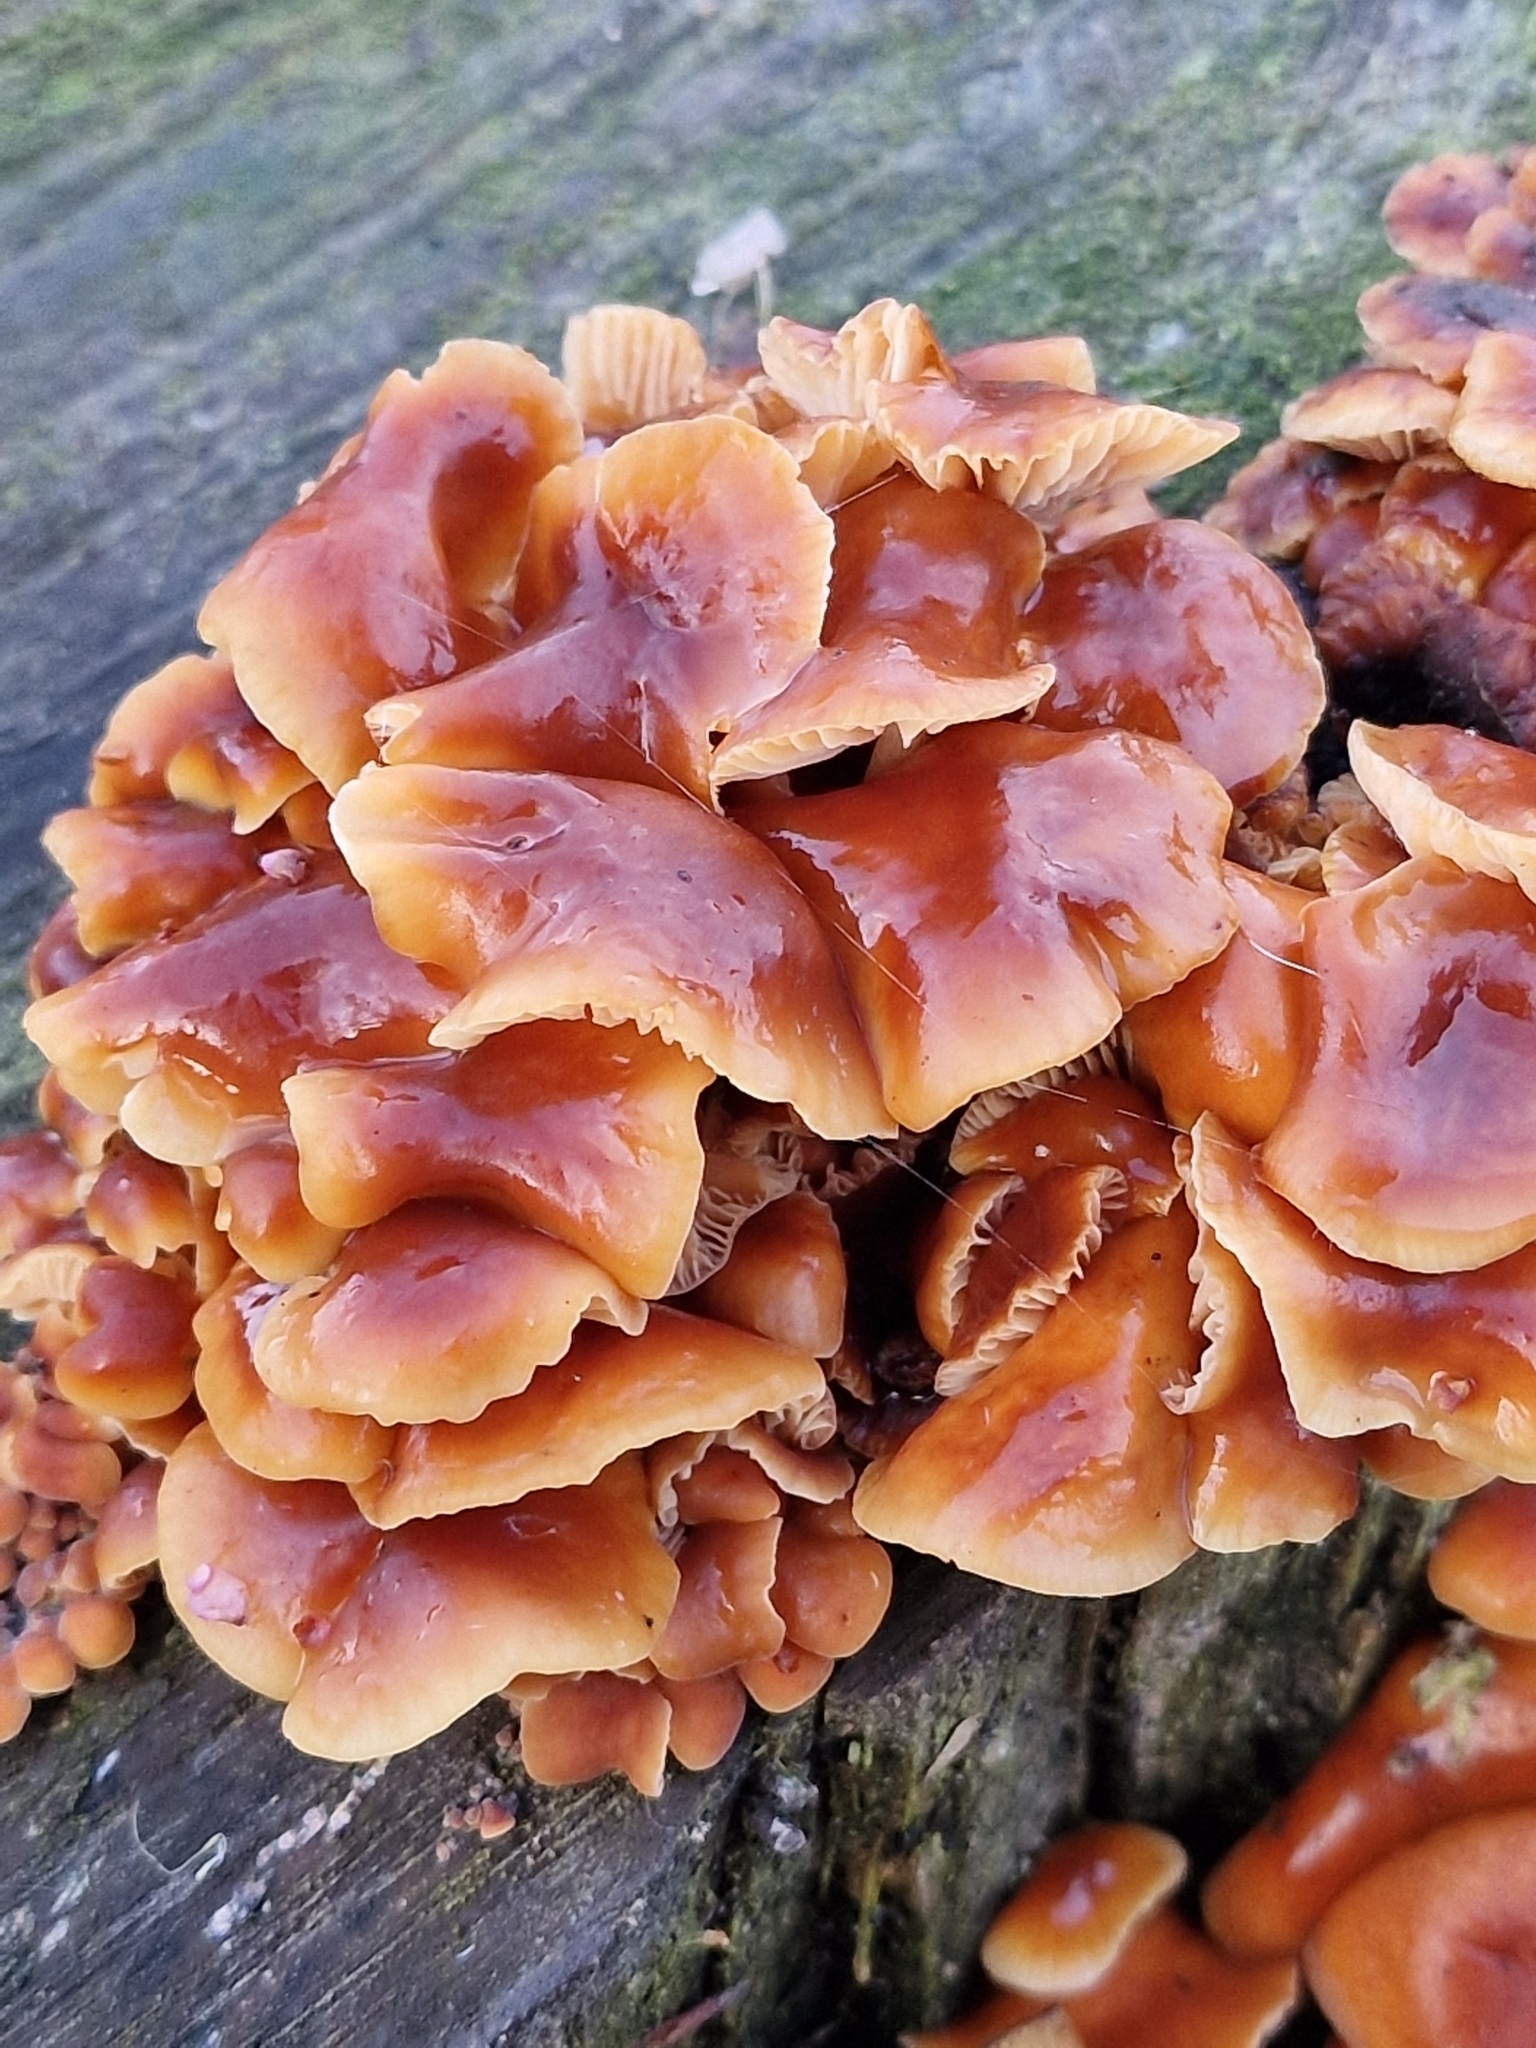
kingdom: Fungi
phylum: Basidiomycota
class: Agaricomycetes
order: Agaricales
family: Physalacriaceae
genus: Flammulina
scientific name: Flammulina
